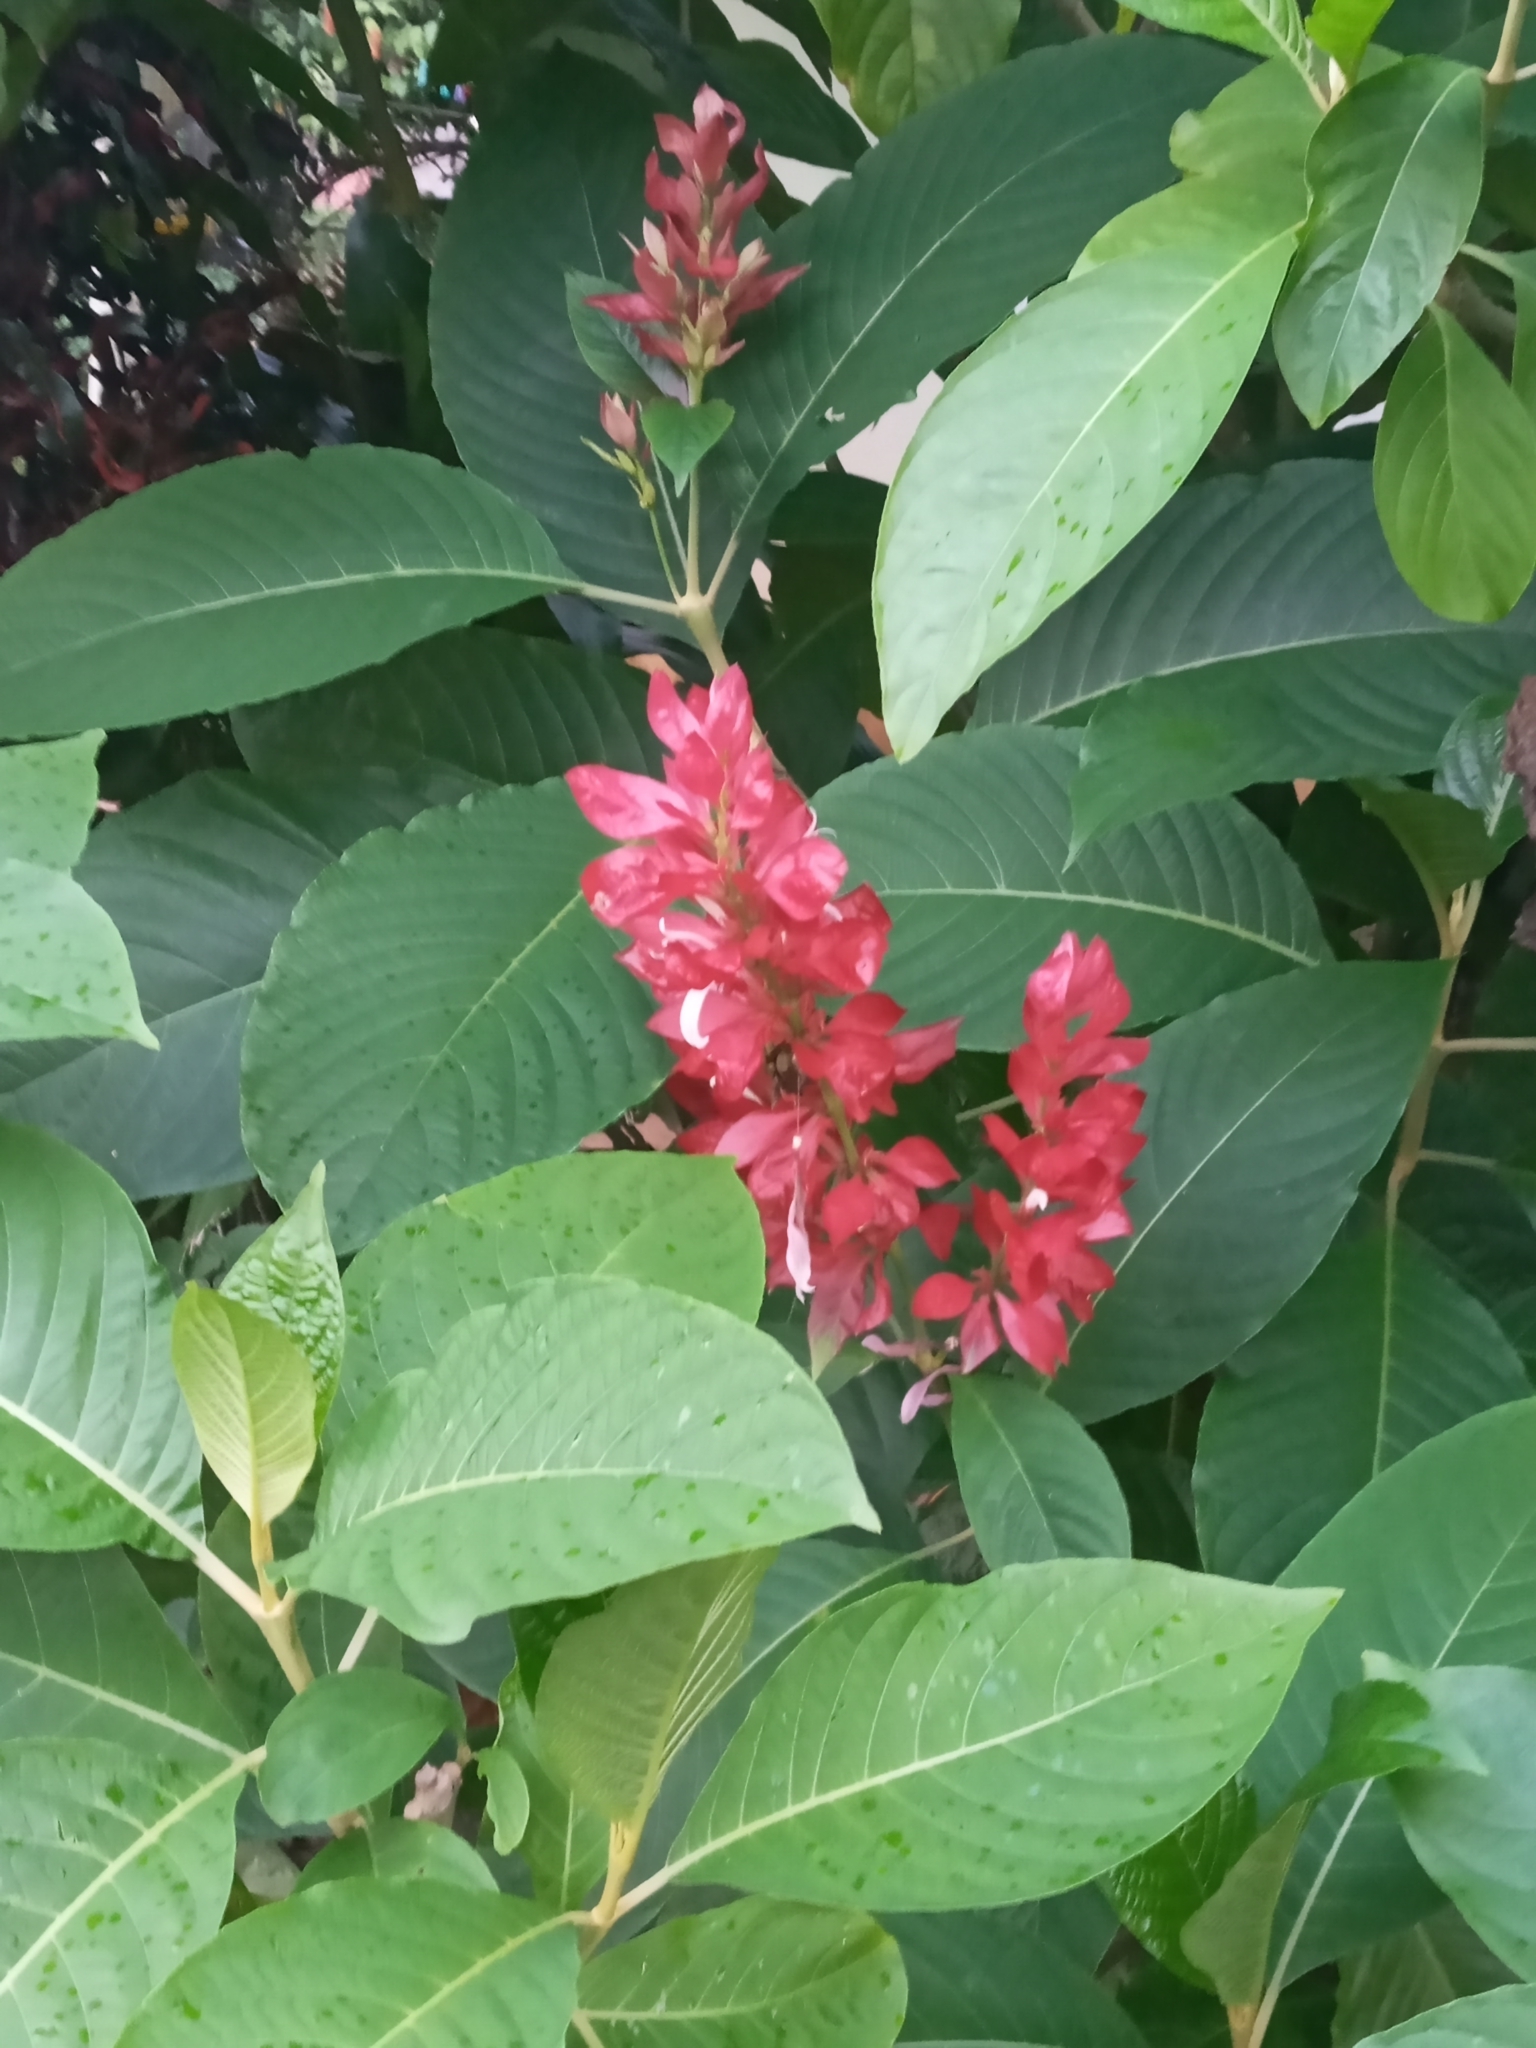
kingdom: Plantae
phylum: Tracheophyta
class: Magnoliopsida
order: Lamiales
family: Acanthaceae
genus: Megaskepasma
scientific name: Megaskepasma erythrochlamys
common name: Brazilian red-cloak
